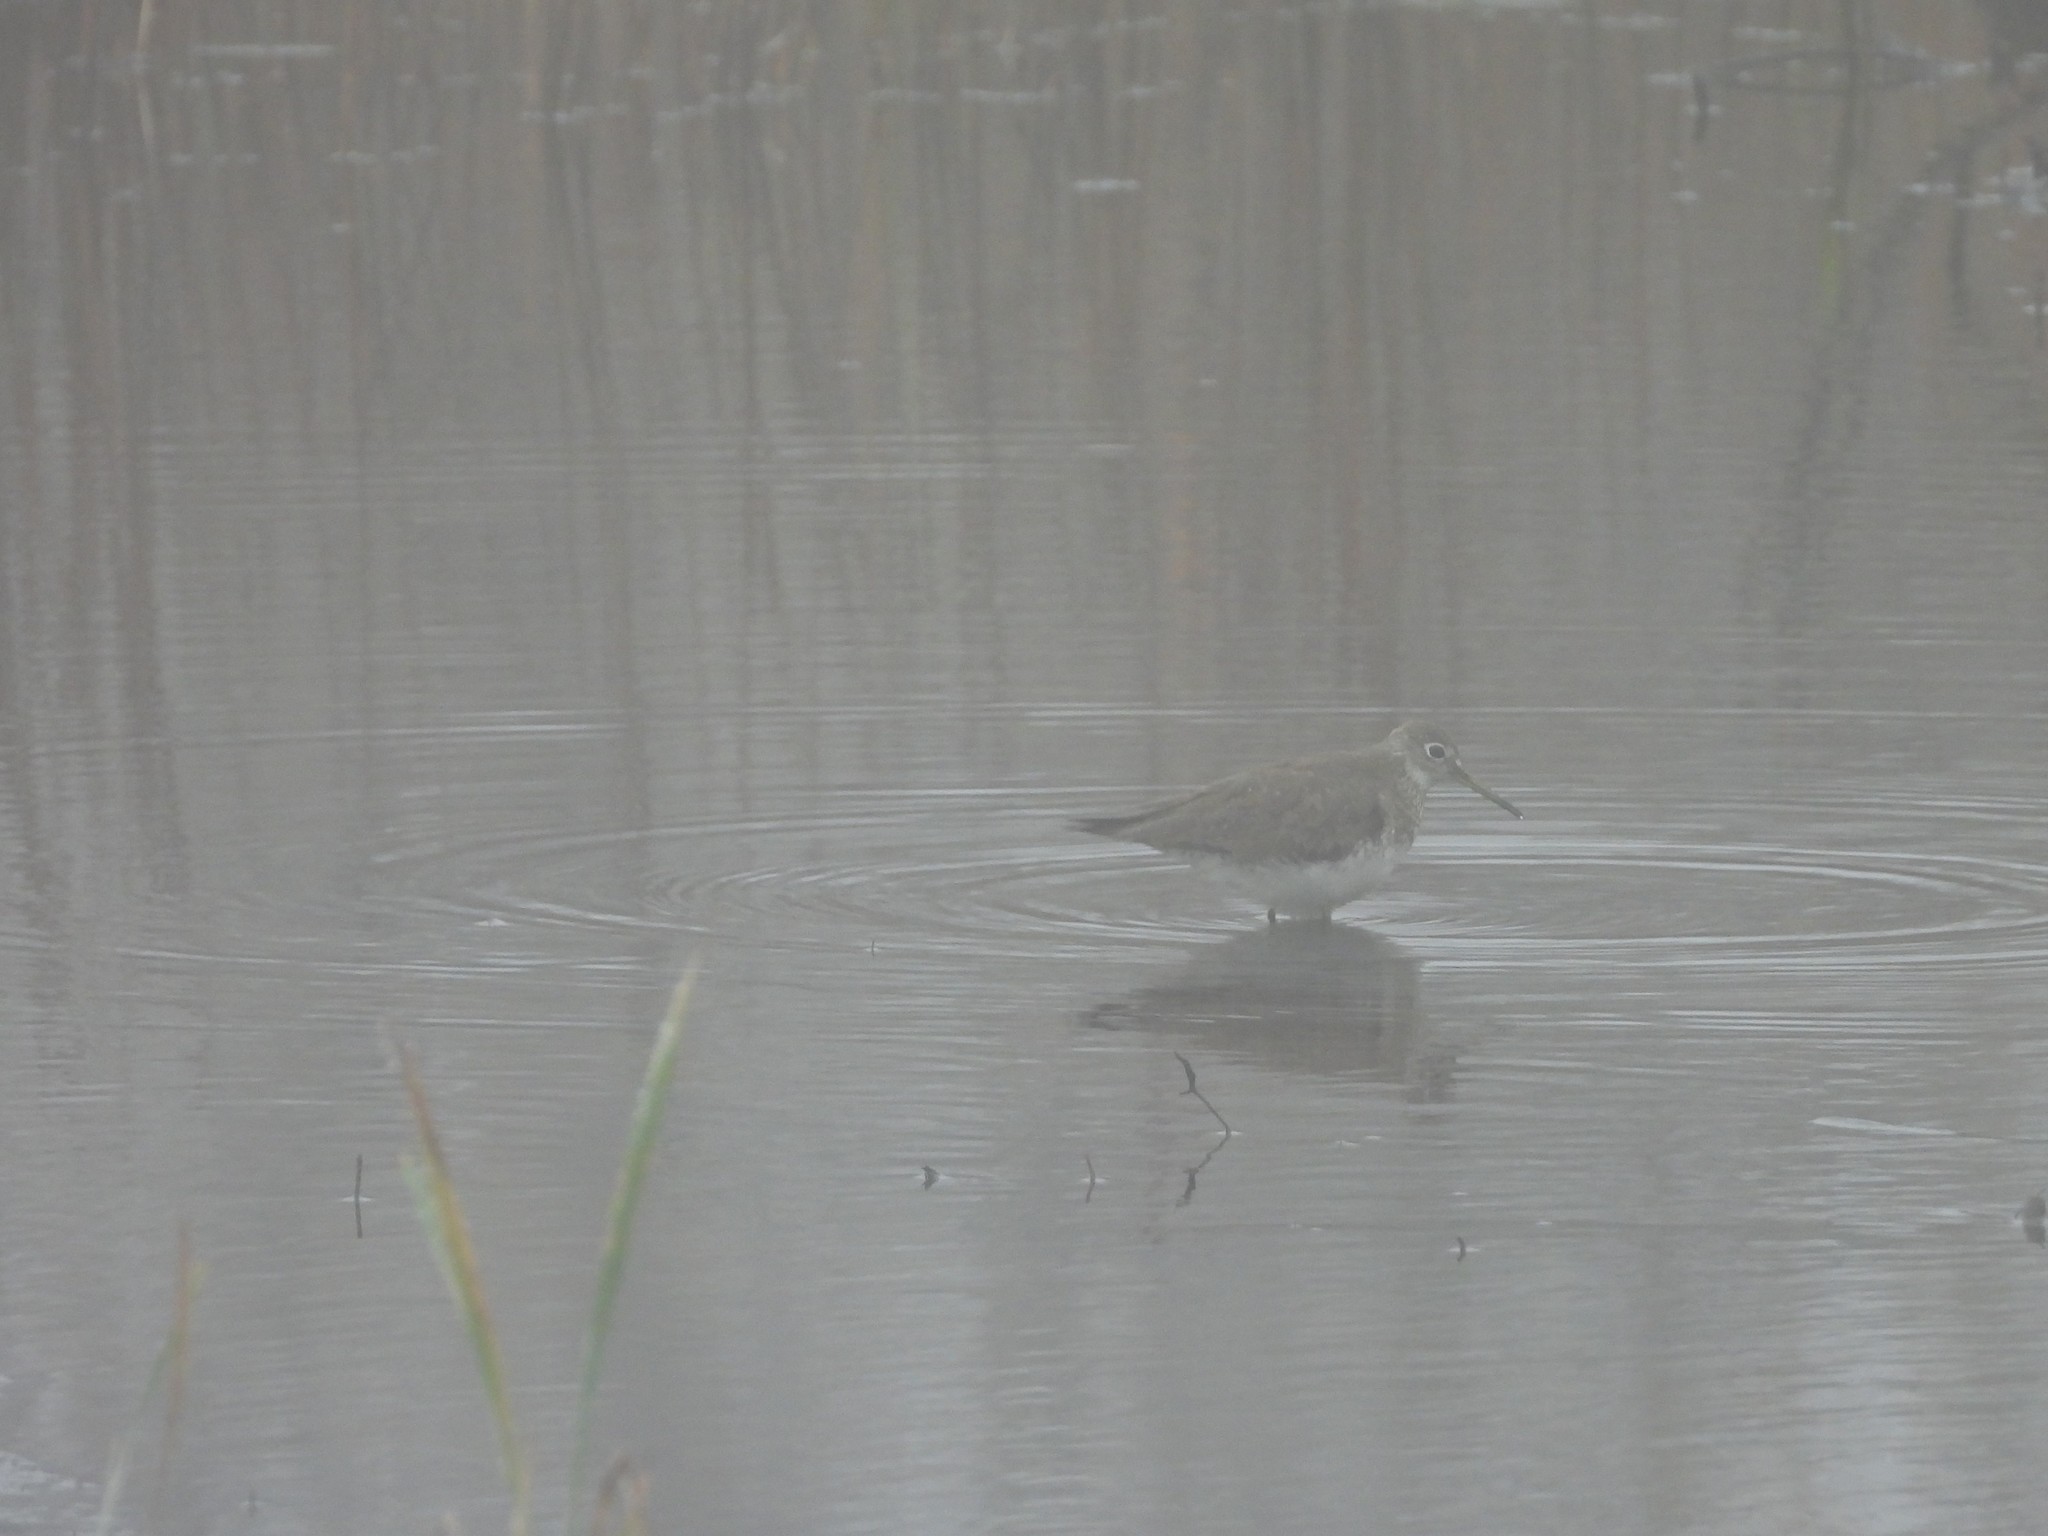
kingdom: Animalia
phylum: Chordata
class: Aves
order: Charadriiformes
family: Scolopacidae
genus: Tringa
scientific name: Tringa solitaria
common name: Solitary sandpiper
